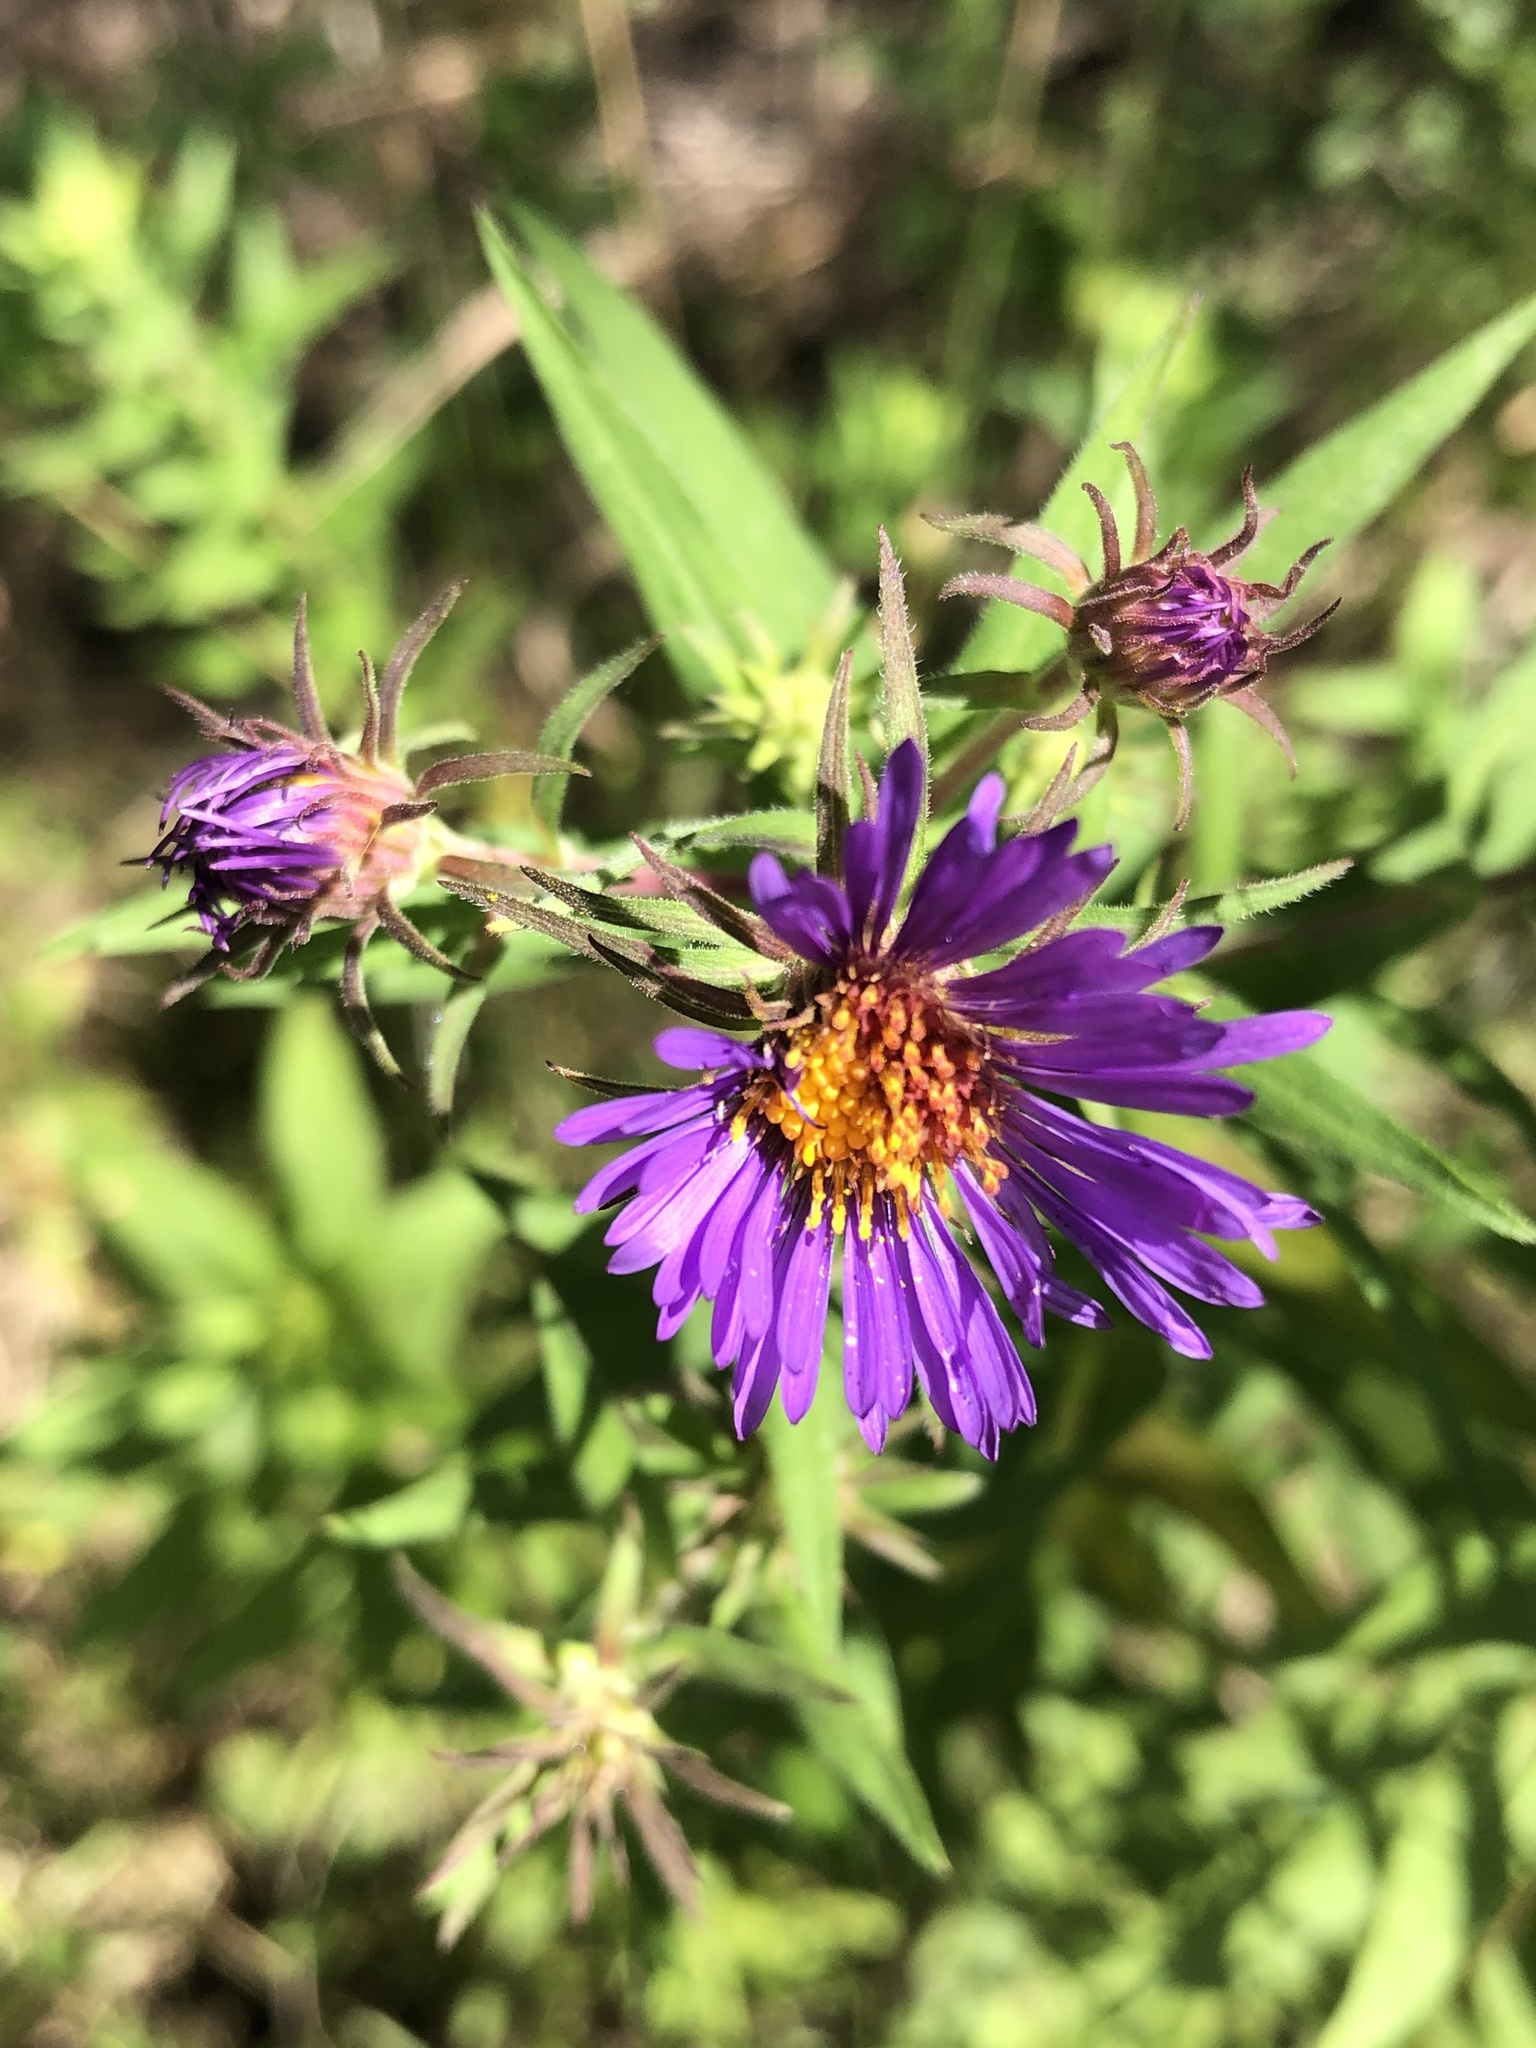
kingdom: Plantae
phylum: Tracheophyta
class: Magnoliopsida
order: Asterales
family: Asteraceae
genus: Symphyotrichum
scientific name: Symphyotrichum novae-angliae
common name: Michaelmas daisy
